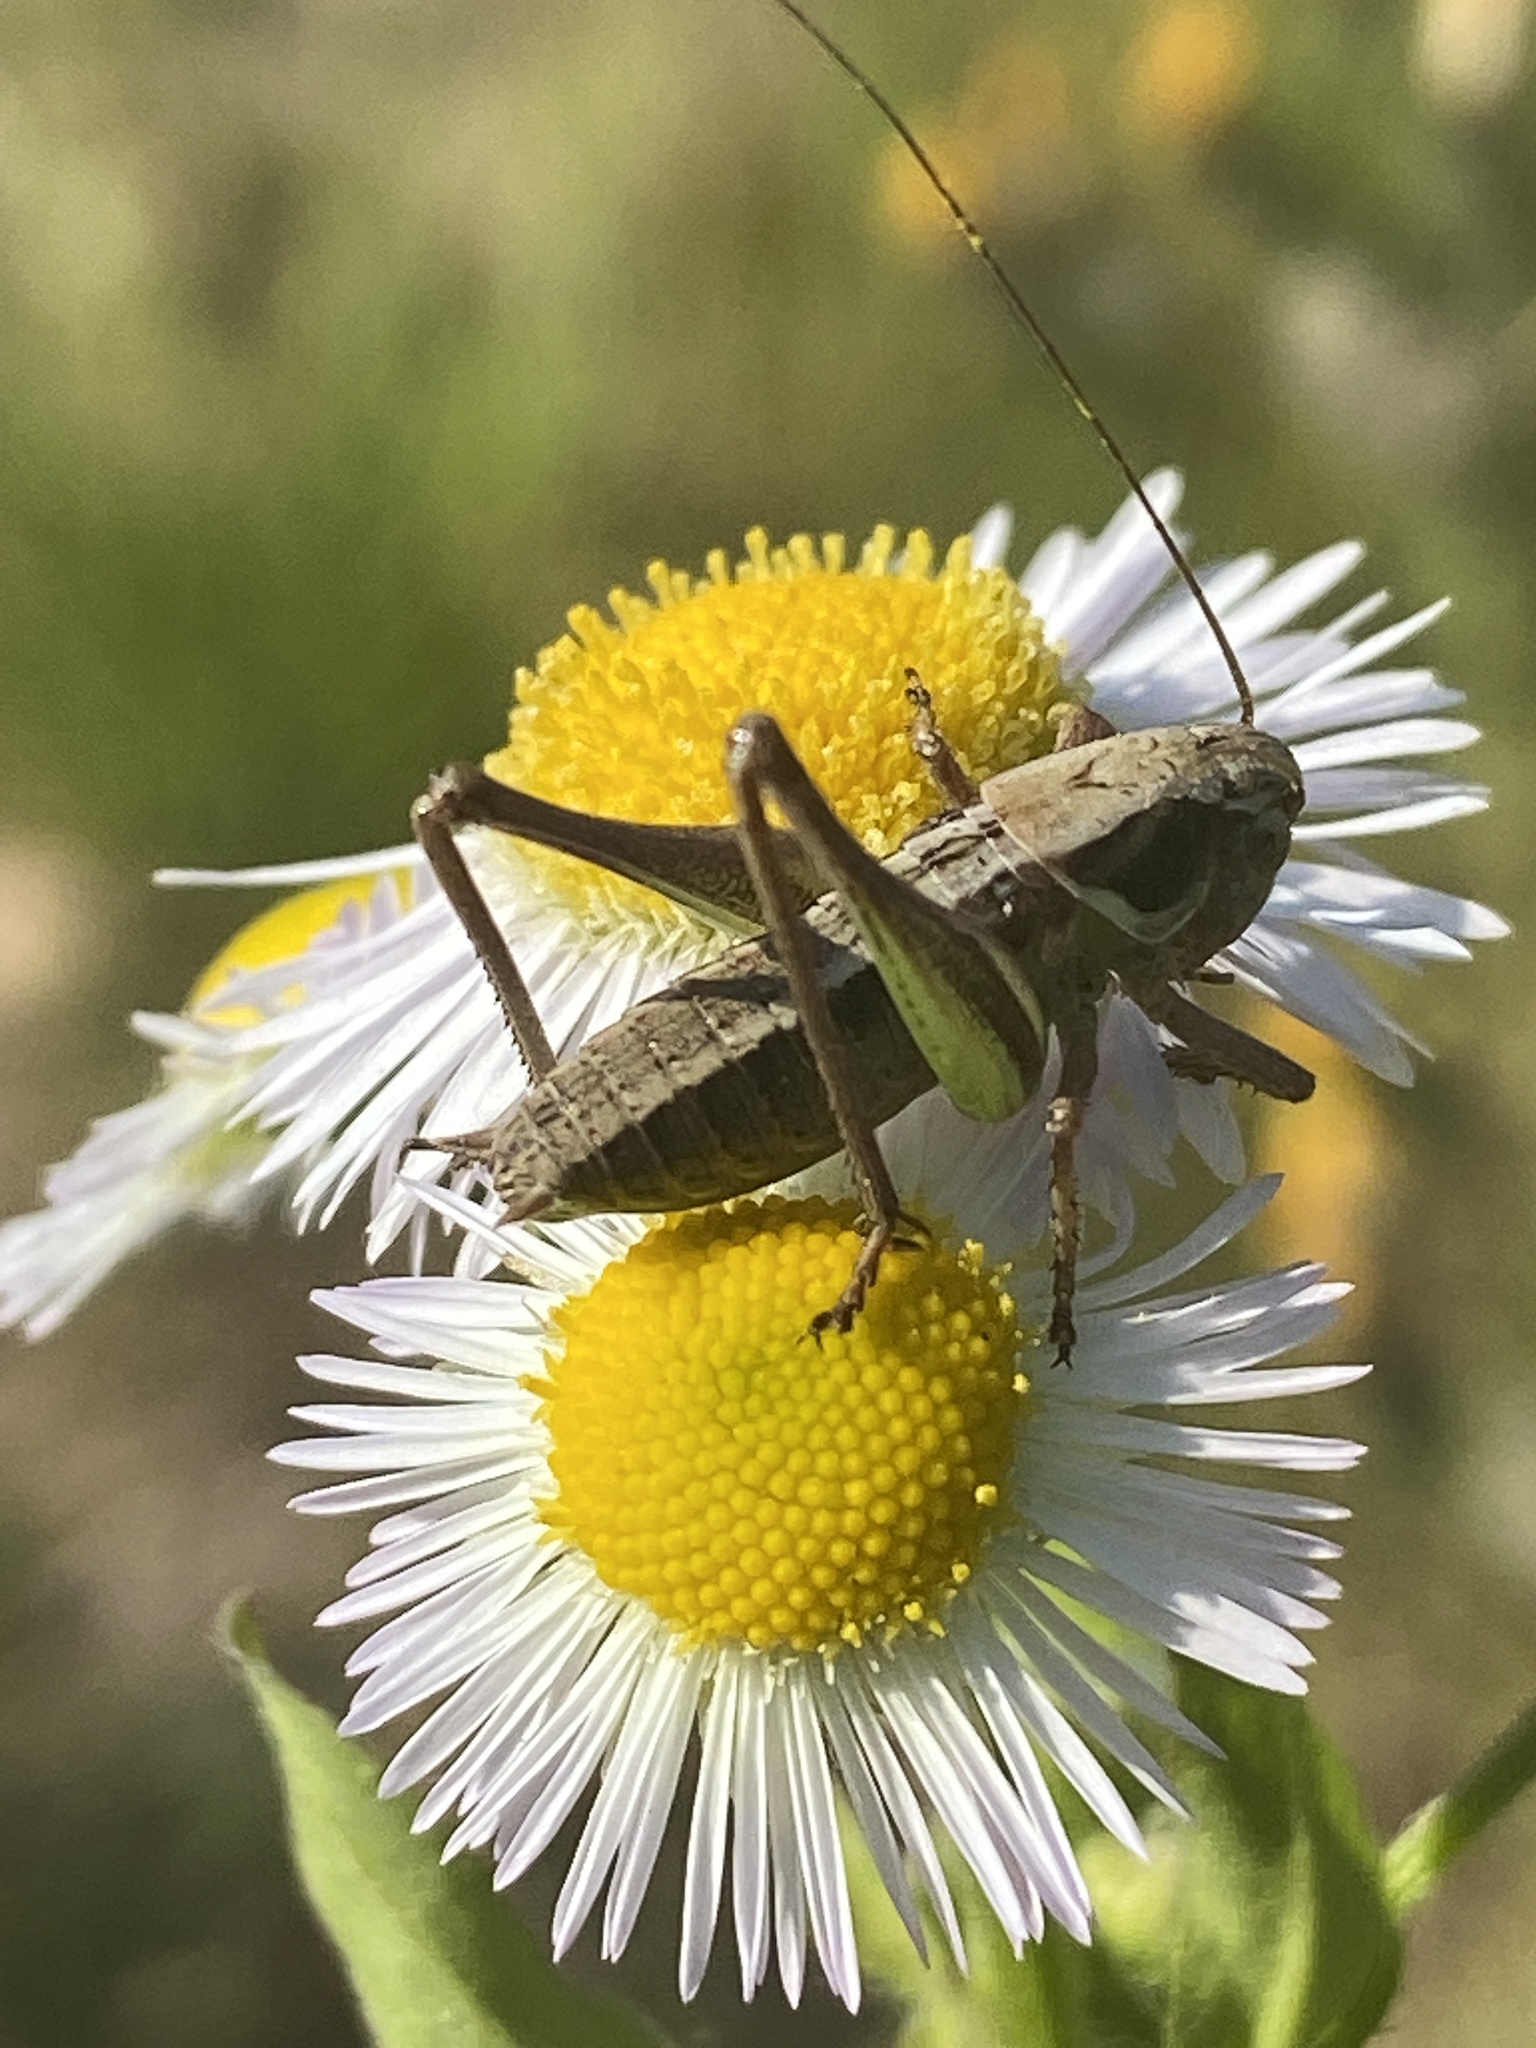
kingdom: Animalia
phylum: Arthropoda
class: Insecta
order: Orthoptera
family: Tettigoniidae
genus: Platycleis
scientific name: Platycleis albopunctata
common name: Grey bush-cricket
